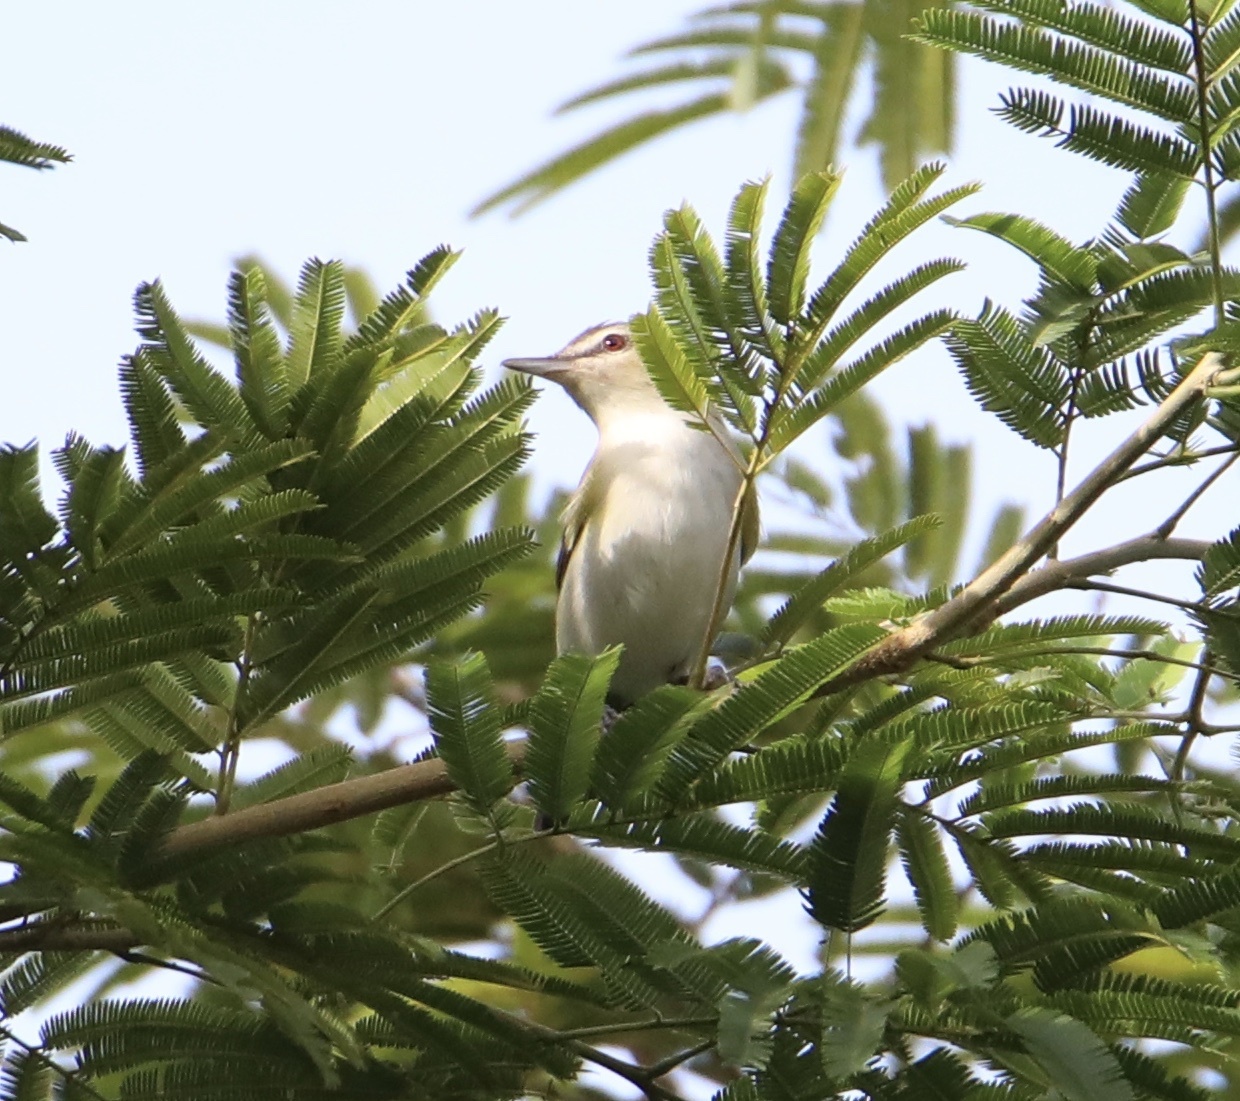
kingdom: Animalia
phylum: Chordata
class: Aves
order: Passeriformes
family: Vireonidae
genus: Vireo
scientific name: Vireo olivaceus
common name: Red-eyed vireo
